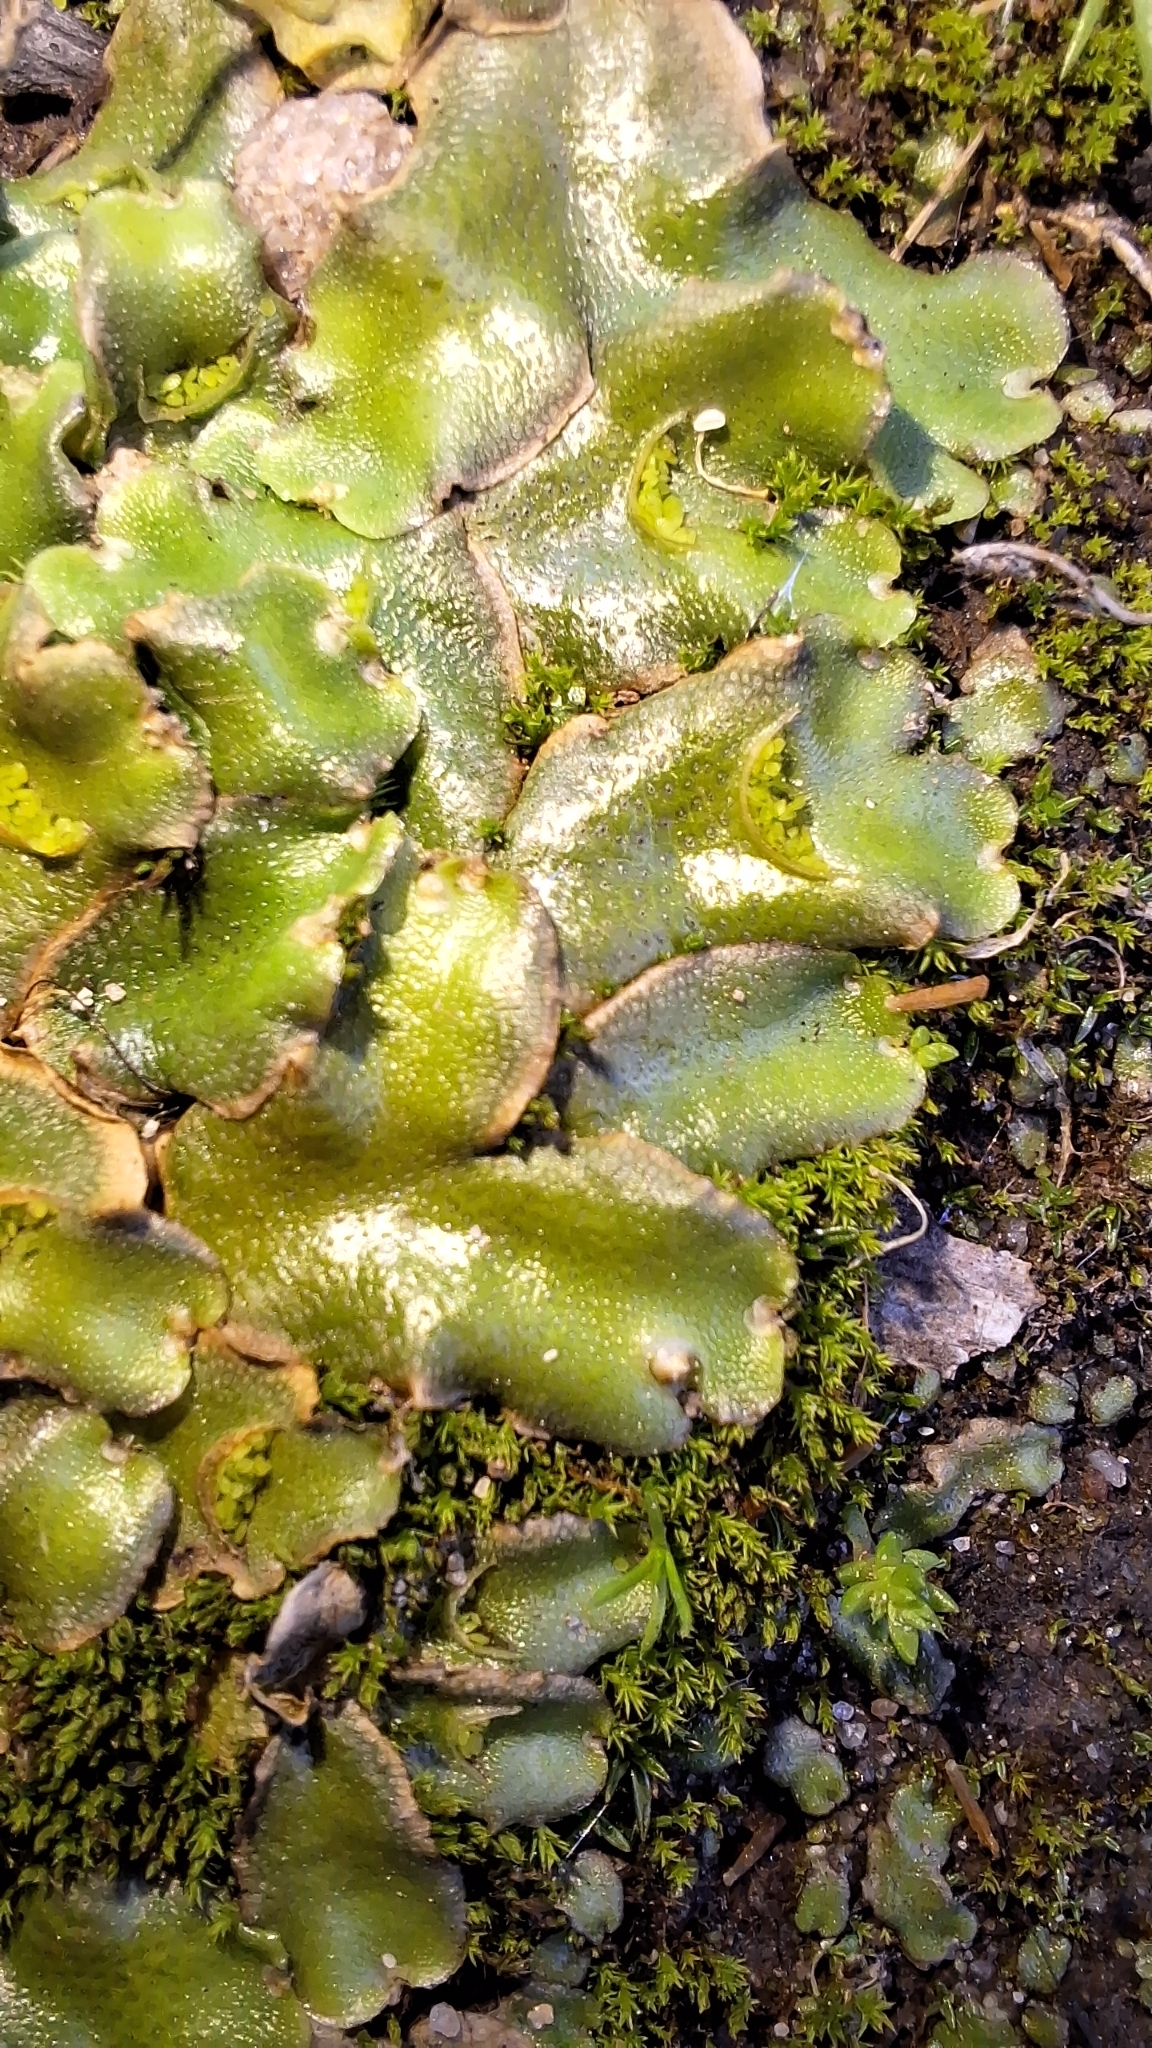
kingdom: Plantae
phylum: Marchantiophyta
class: Marchantiopsida
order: Lunulariales
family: Lunulariaceae
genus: Lunularia
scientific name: Lunularia cruciata
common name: Crescent-cup liverwort
